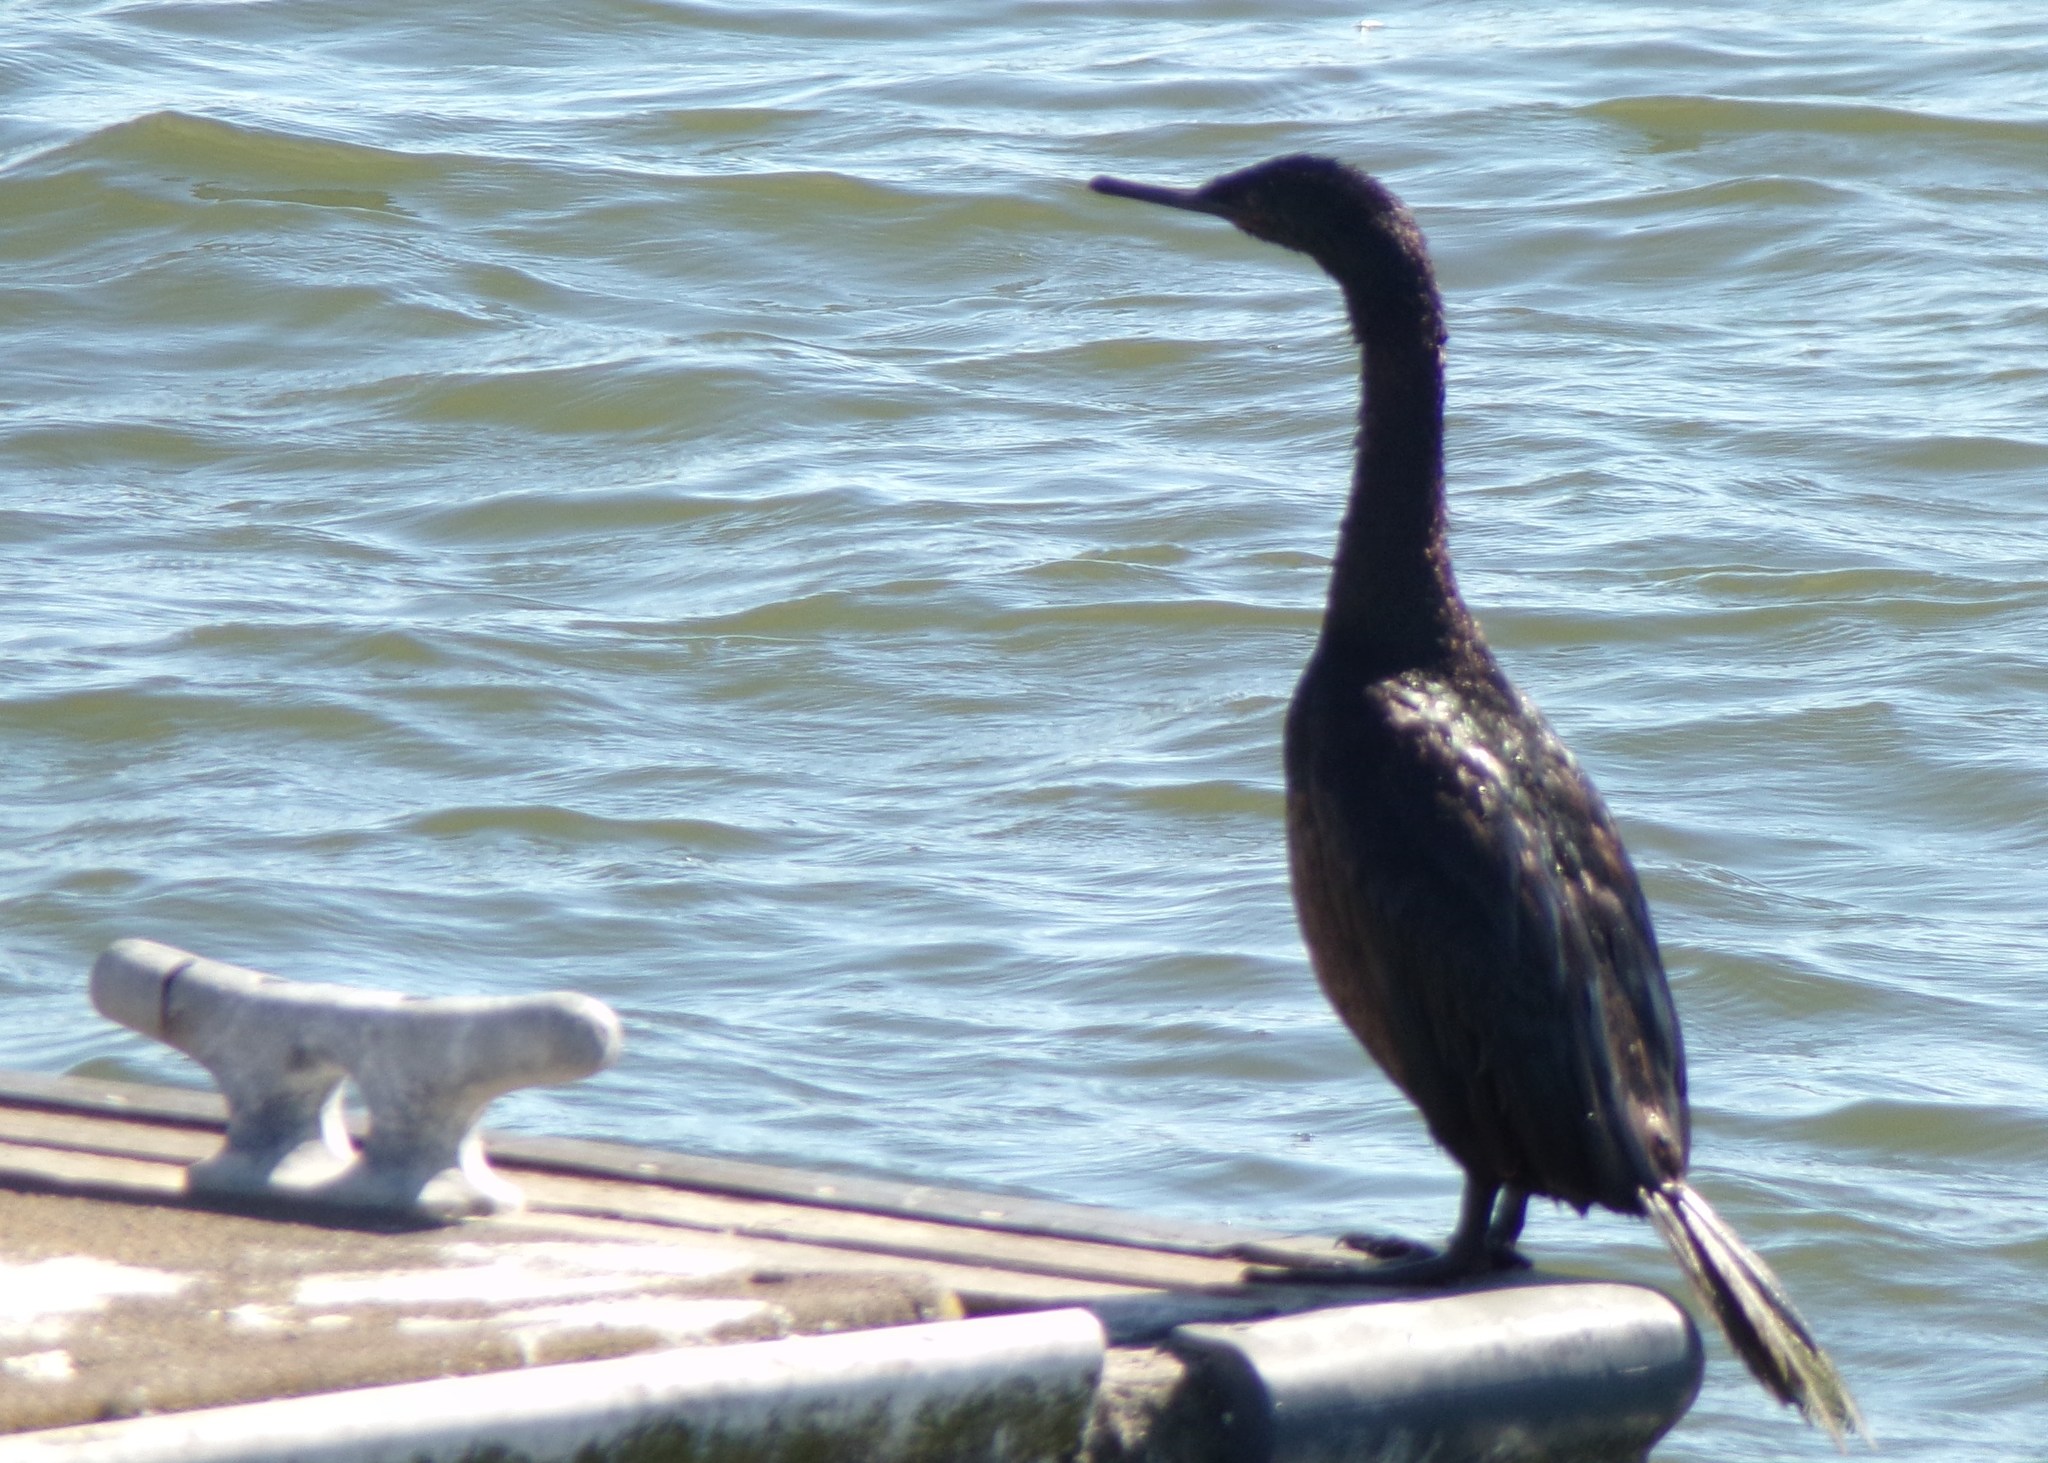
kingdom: Animalia
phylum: Chordata
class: Aves
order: Suliformes
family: Phalacrocoracidae
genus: Phalacrocorax
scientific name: Phalacrocorax pelagicus
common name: Pelagic cormorant
